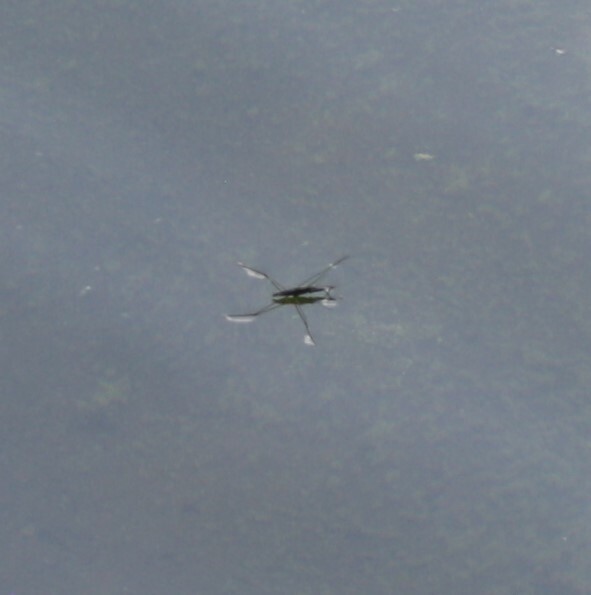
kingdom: Animalia
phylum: Arthropoda
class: Insecta
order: Hemiptera
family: Gerridae
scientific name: Gerridae
